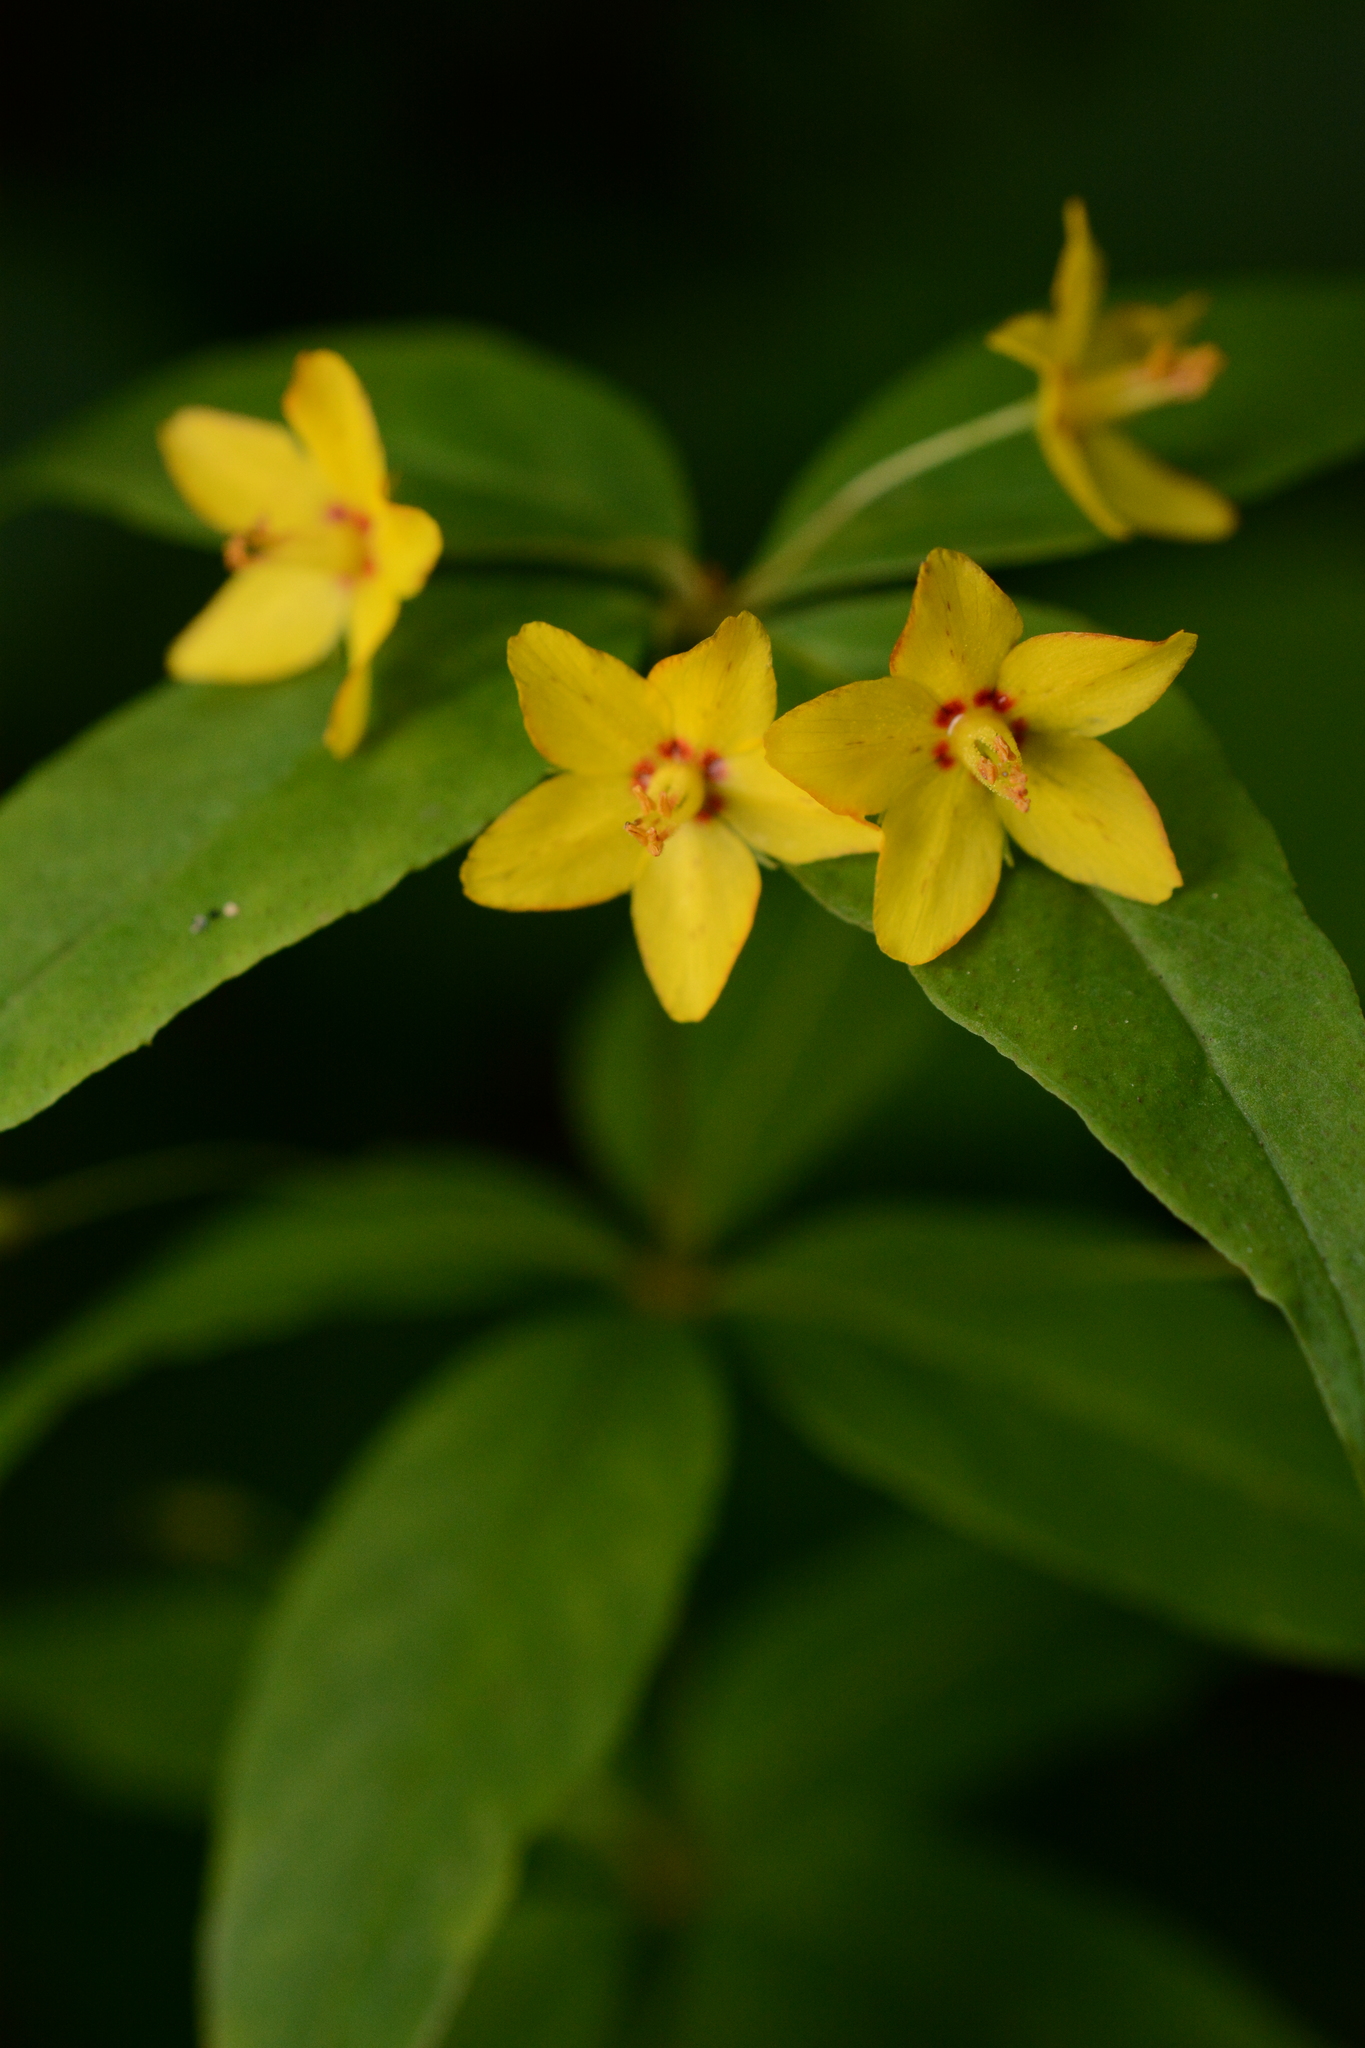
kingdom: Plantae
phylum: Tracheophyta
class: Magnoliopsida
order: Ericales
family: Primulaceae
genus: Lysimachia
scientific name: Lysimachia quadrifolia
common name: Whorled loosestrife
